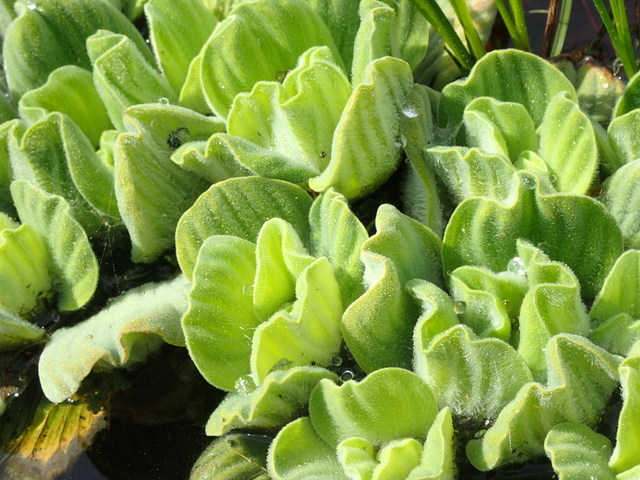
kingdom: Plantae
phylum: Tracheophyta
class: Liliopsida
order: Alismatales
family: Araceae
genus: Pistia
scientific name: Pistia stratiotes
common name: Water lettuce
